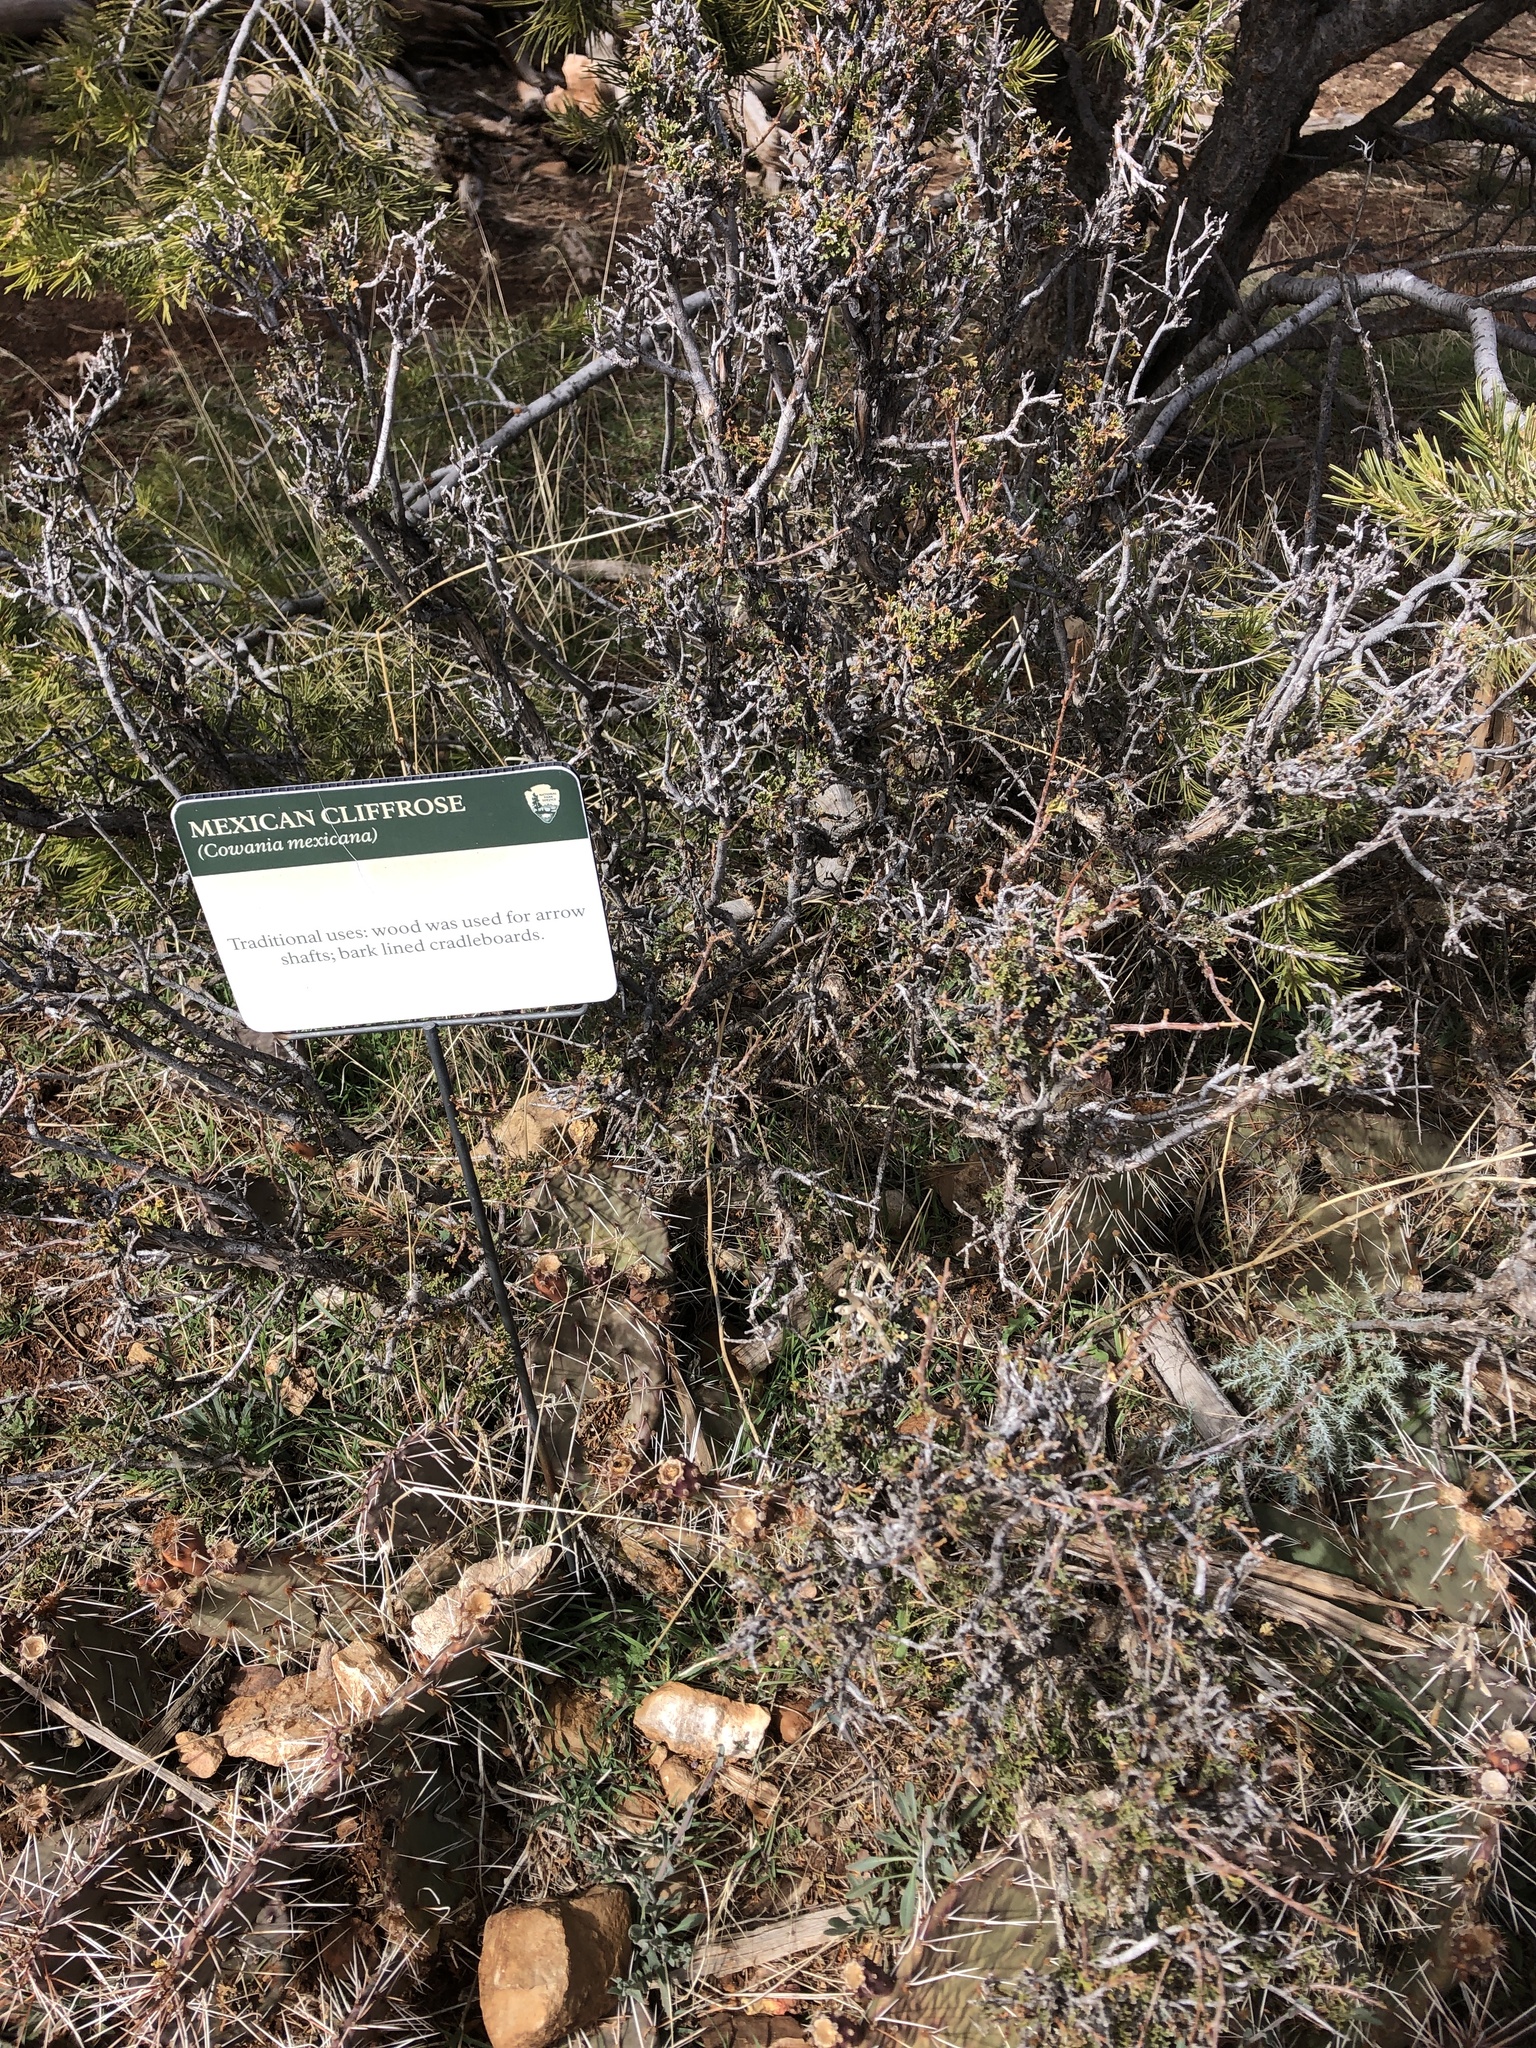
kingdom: Plantae
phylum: Tracheophyta
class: Magnoliopsida
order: Rosales
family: Rosaceae
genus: Purshia
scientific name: Purshia stansburiana
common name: Stansbury's cliffrose
